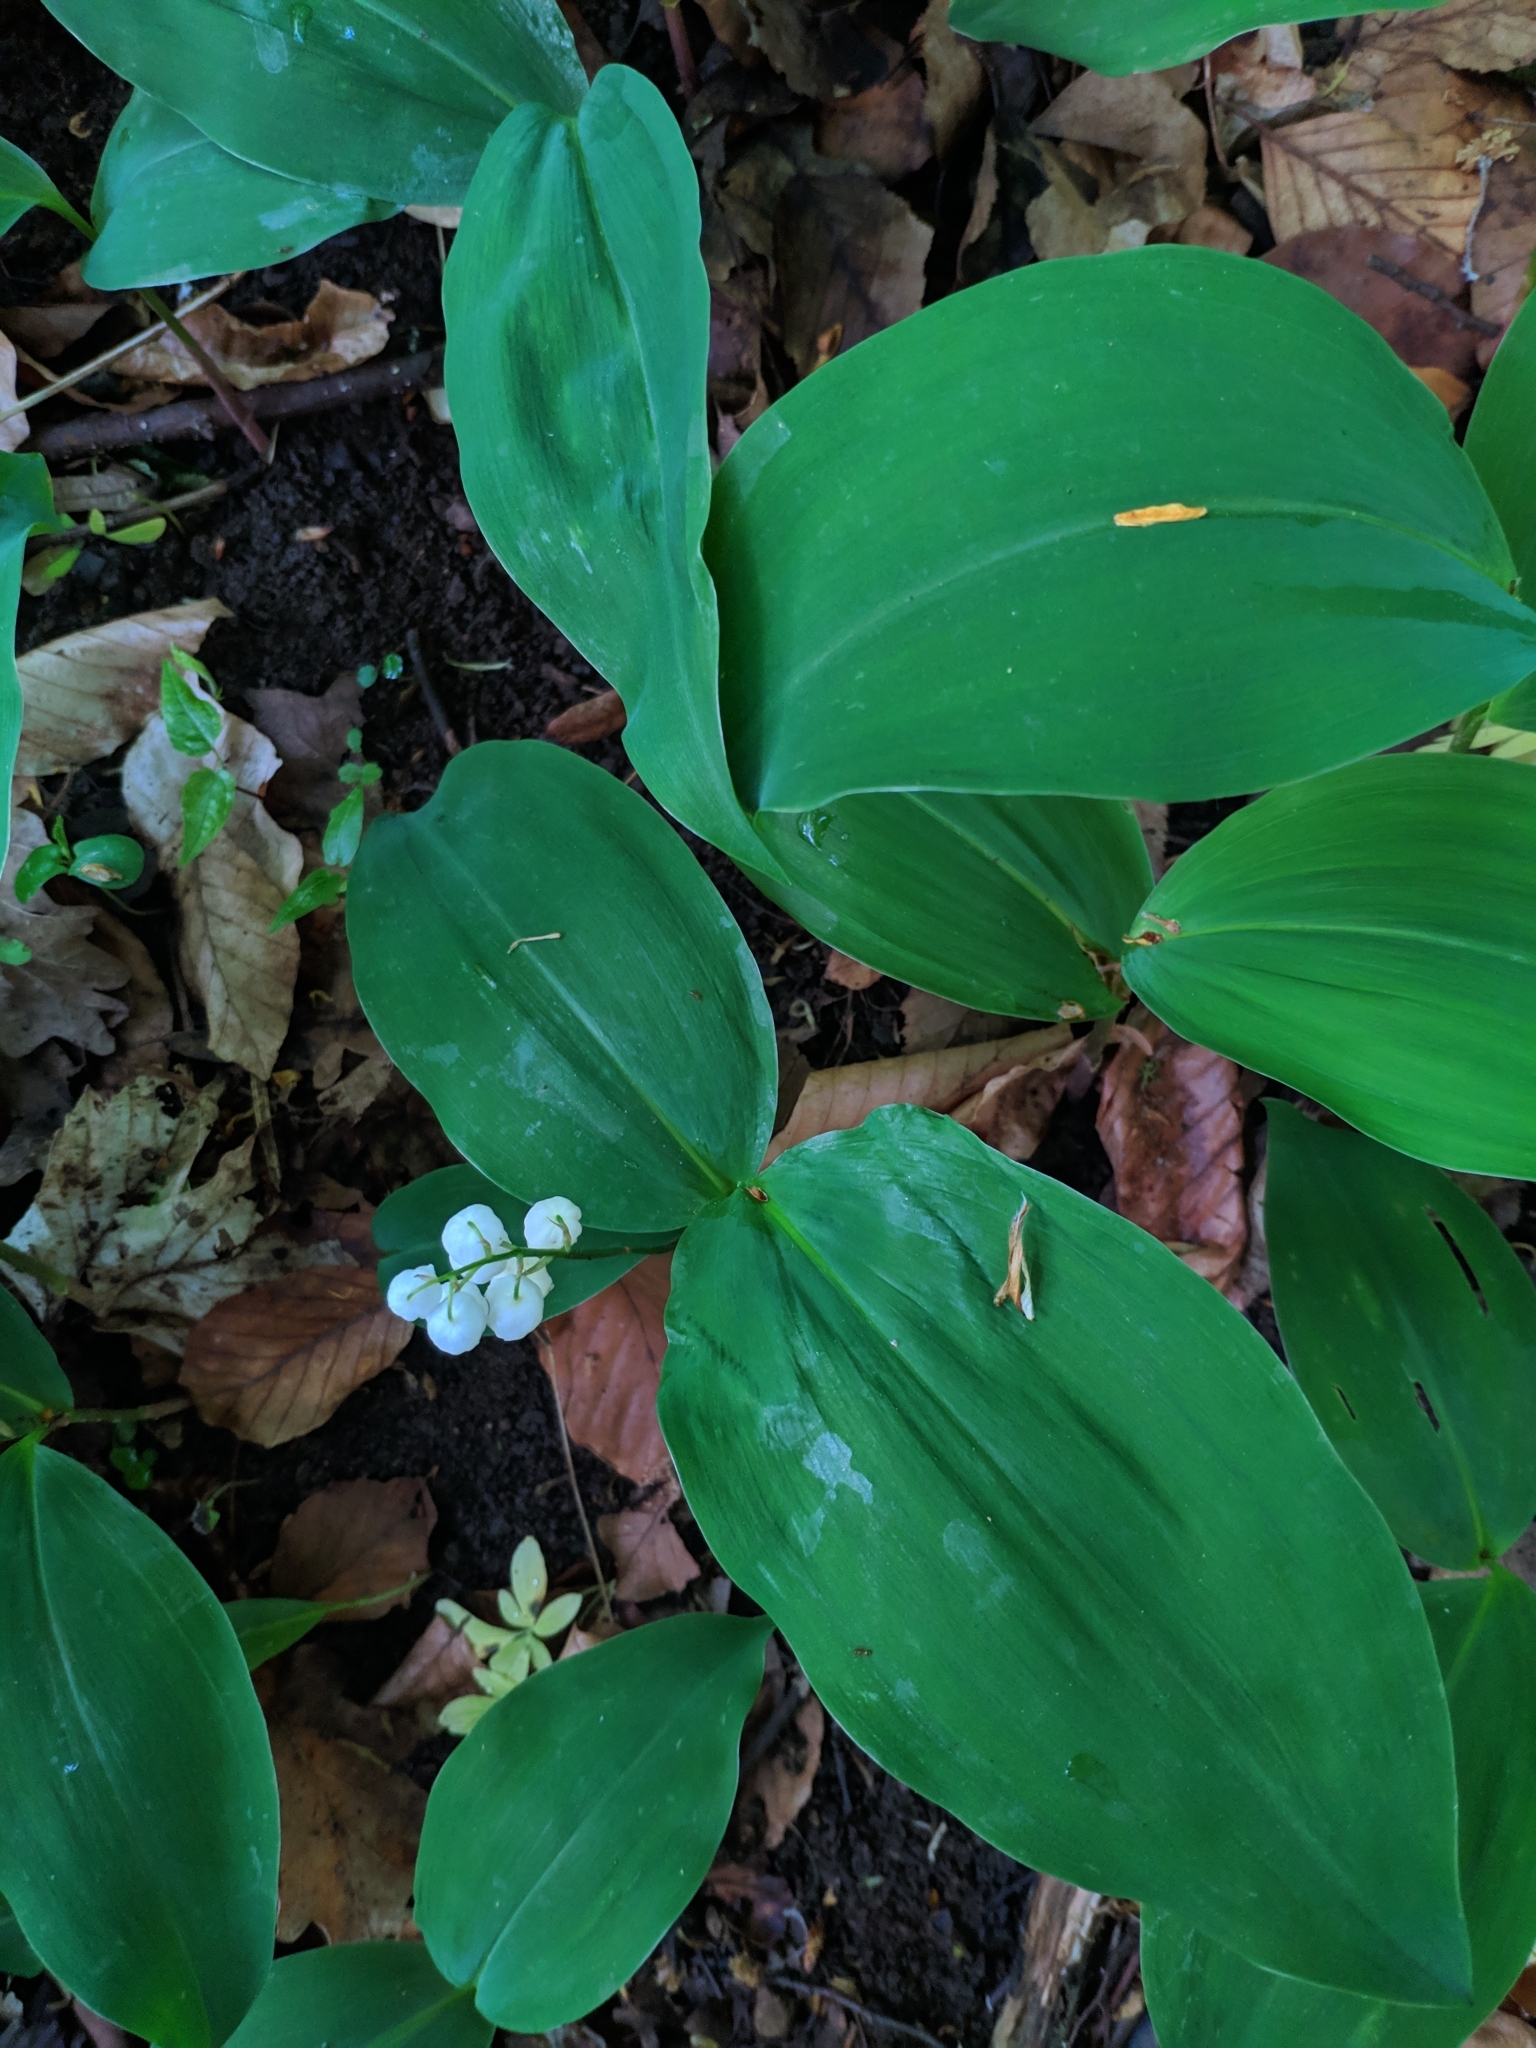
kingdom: Plantae
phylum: Tracheophyta
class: Liliopsida
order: Asparagales
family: Asparagaceae
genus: Convallaria
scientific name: Convallaria majalis
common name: Lily-of-the-valley
